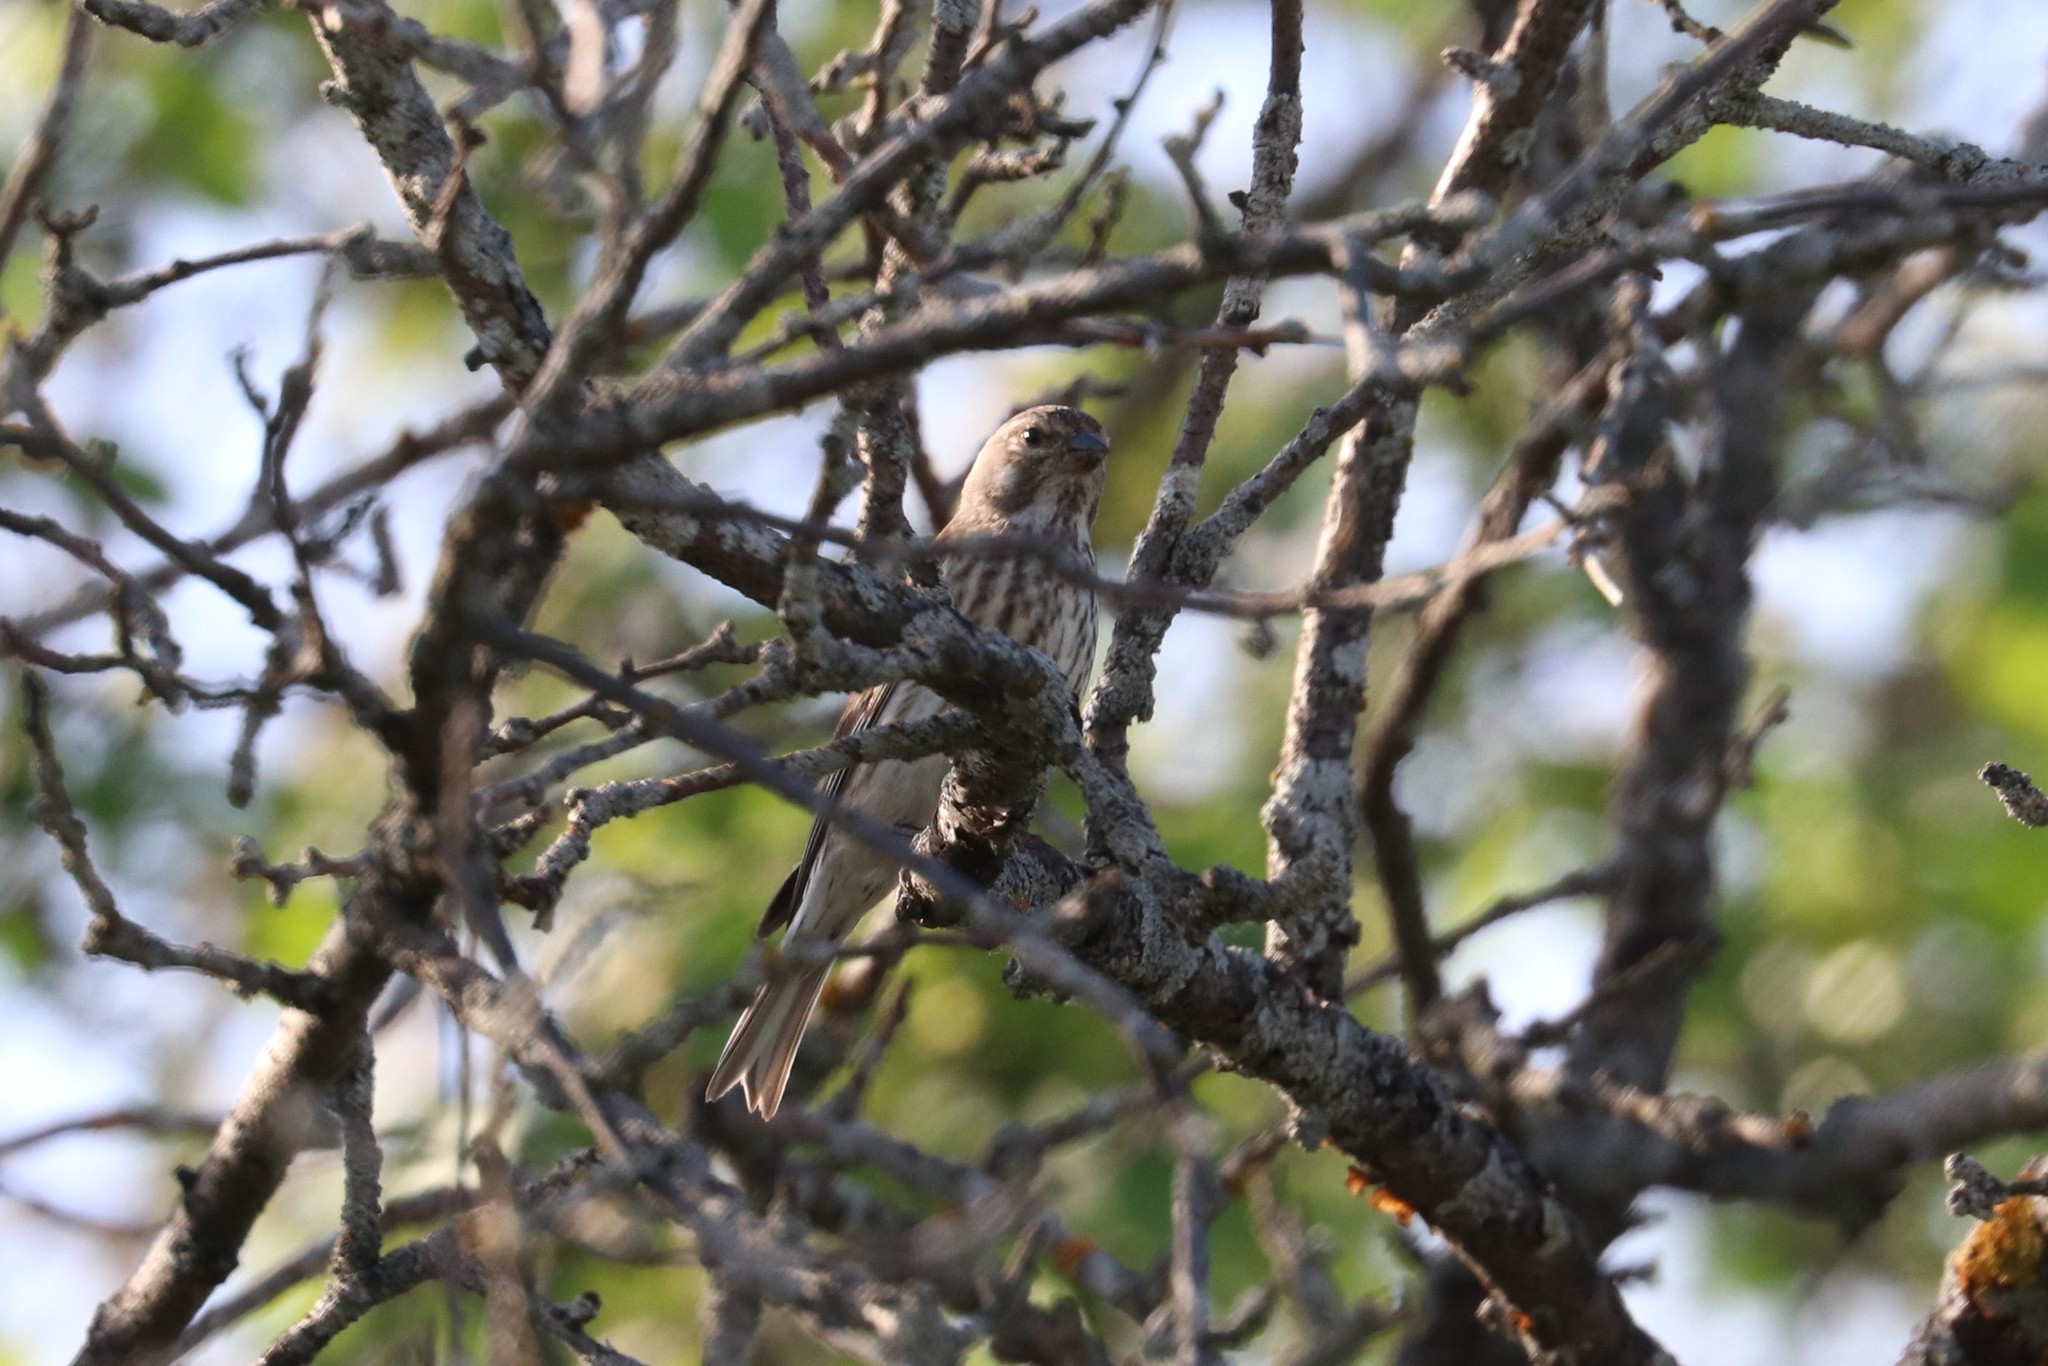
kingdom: Animalia
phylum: Chordata
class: Aves
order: Passeriformes
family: Fringillidae
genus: Linaria
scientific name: Linaria cannabina
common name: Common linnet
